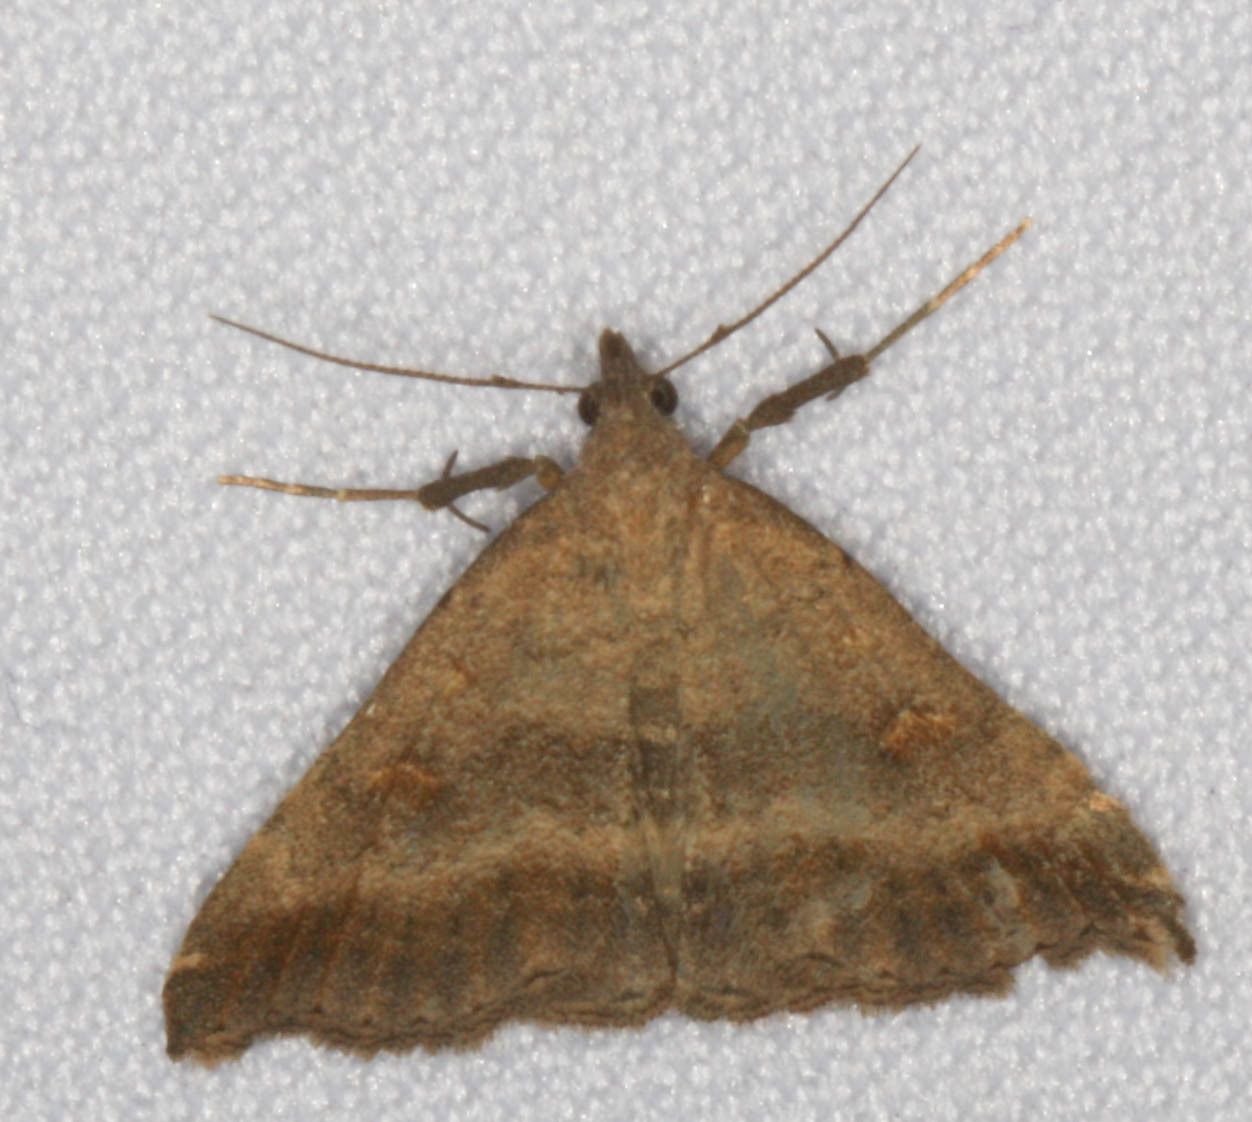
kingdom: Animalia
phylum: Arthropoda
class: Insecta
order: Lepidoptera
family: Erebidae
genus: Tetanolita
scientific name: Tetanolita palligera
